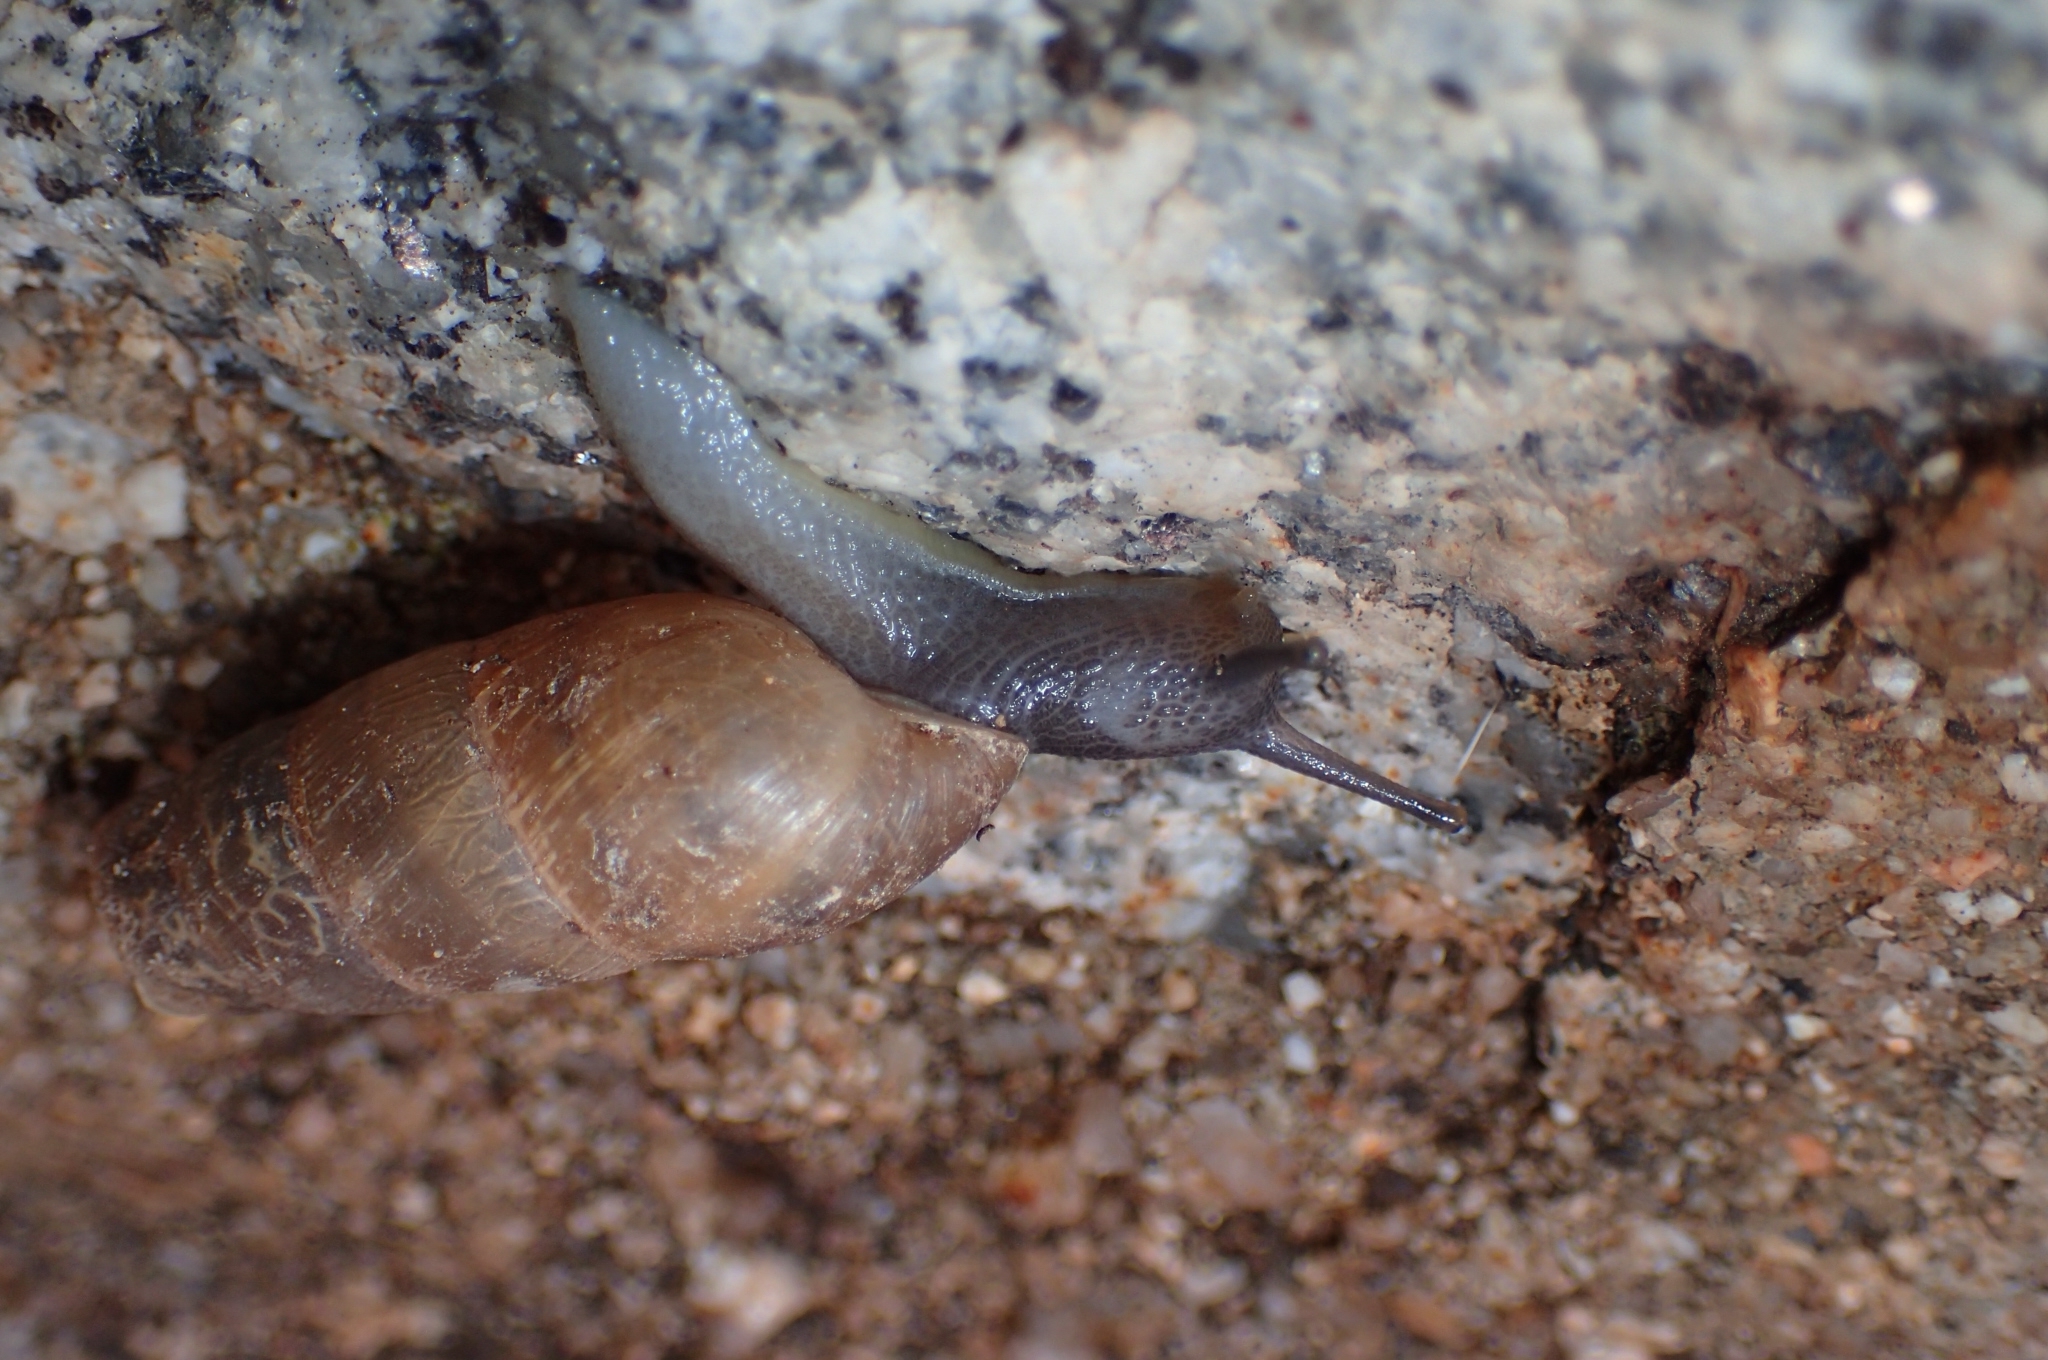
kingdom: Animalia
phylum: Mollusca
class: Gastropoda
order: Stylommatophora
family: Achatinidae
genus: Rumina
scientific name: Rumina decollata
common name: Decollate snail
